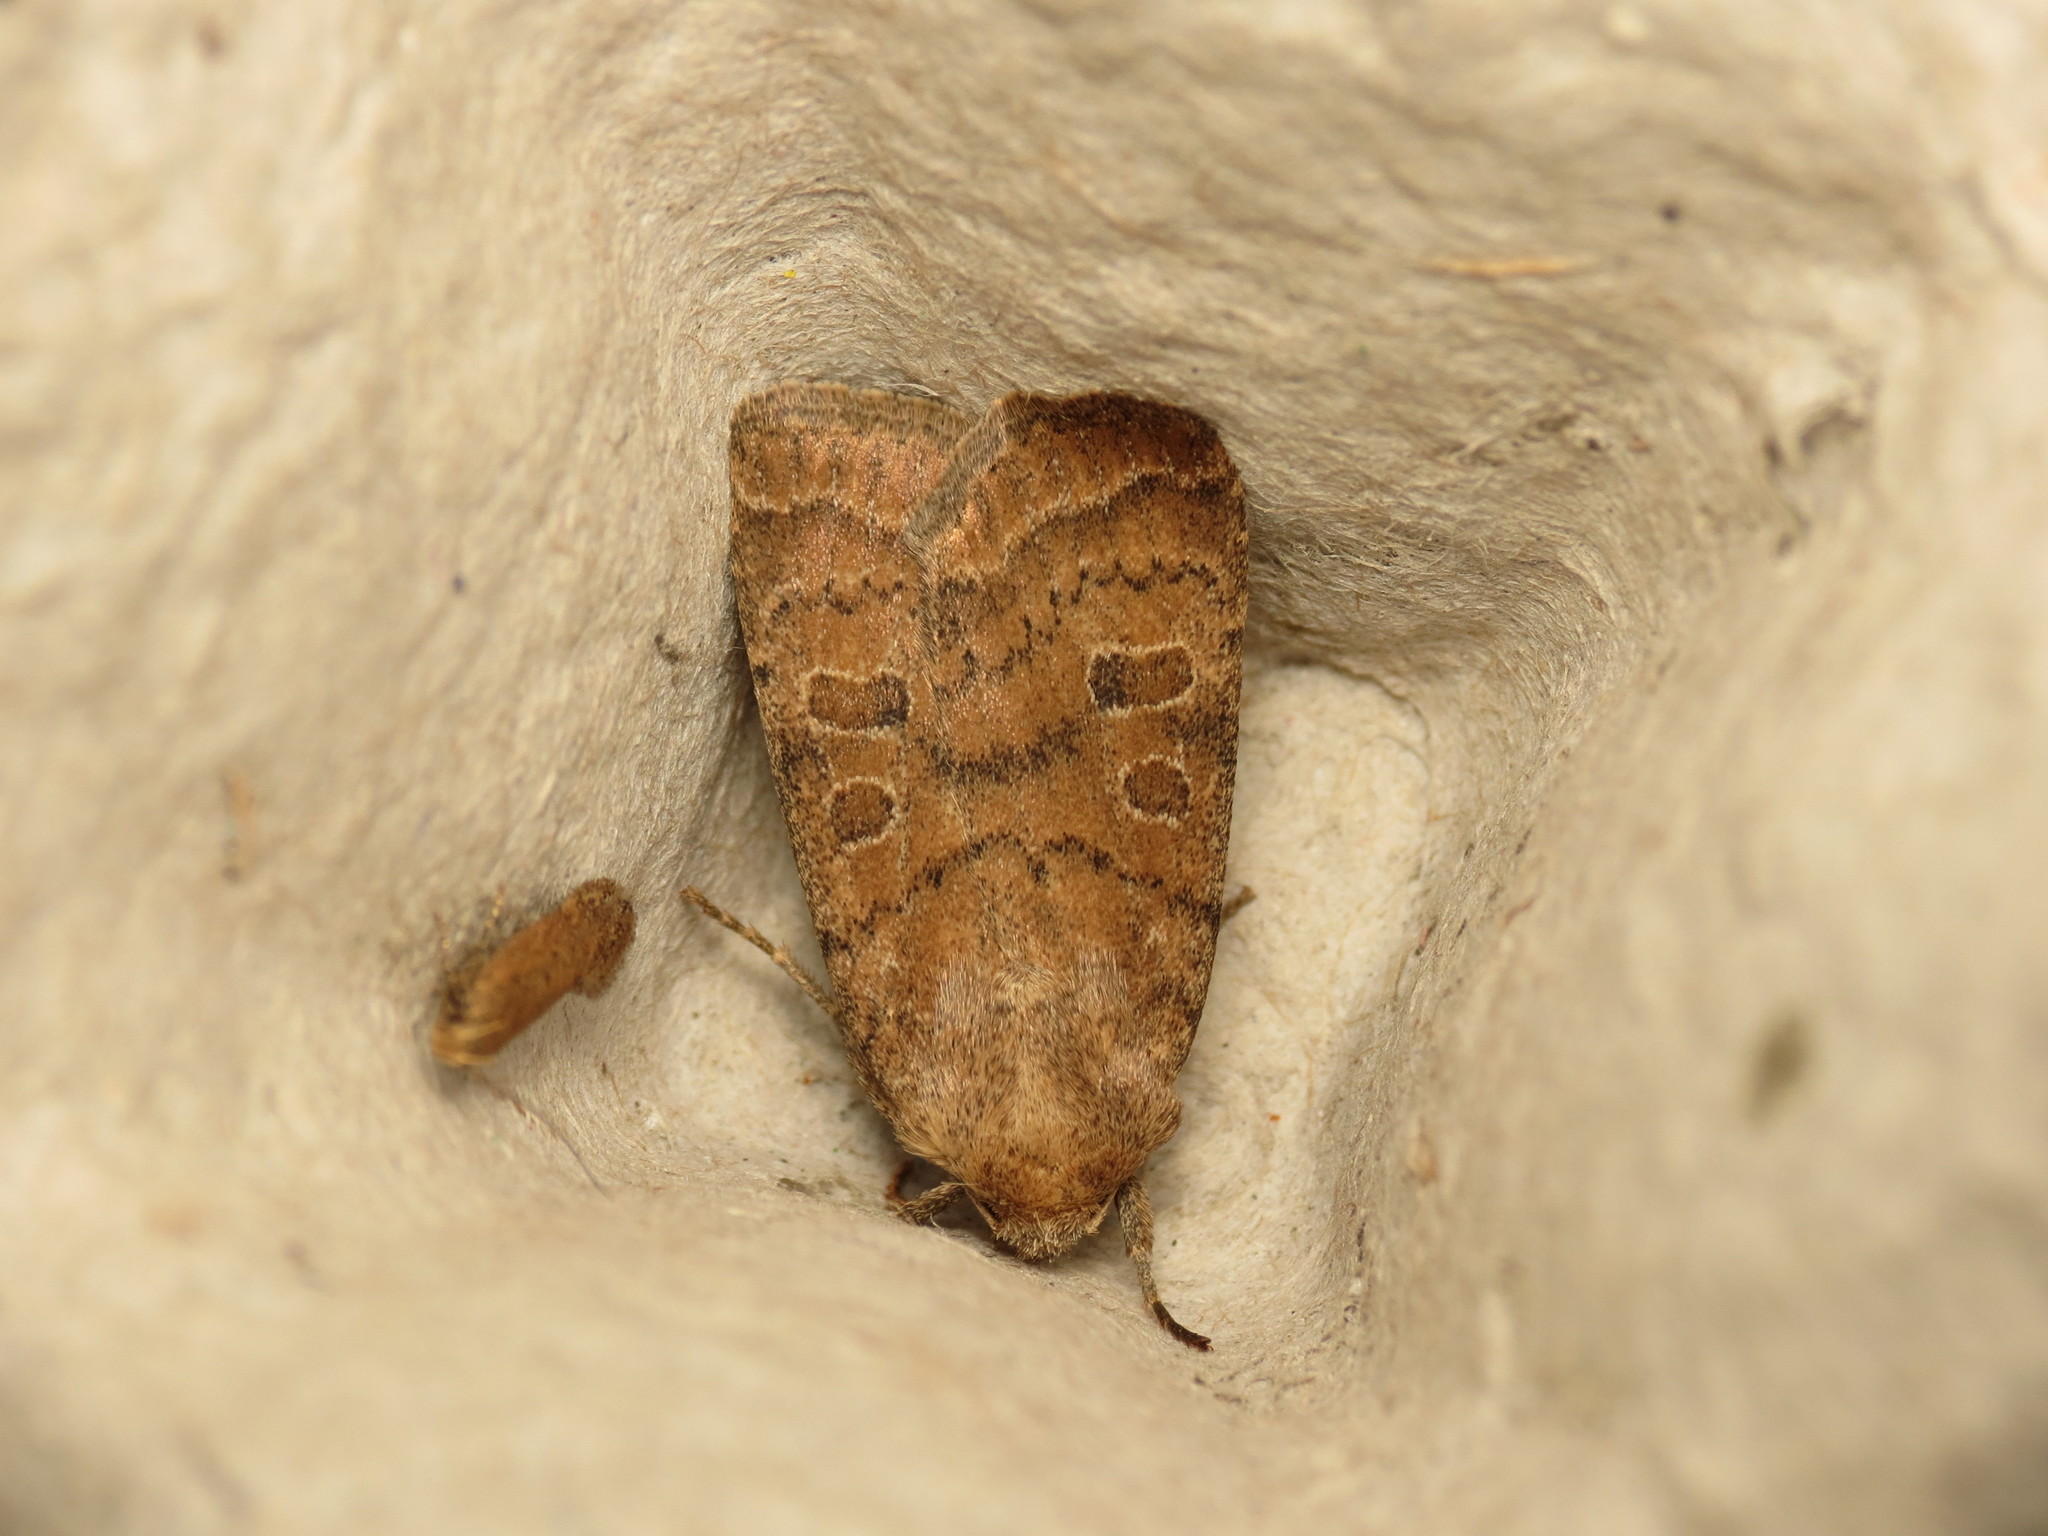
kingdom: Animalia
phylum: Arthropoda
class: Insecta
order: Lepidoptera
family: Noctuidae
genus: Hoplodrina
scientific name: Hoplodrina octogenaria
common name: Uncertain
